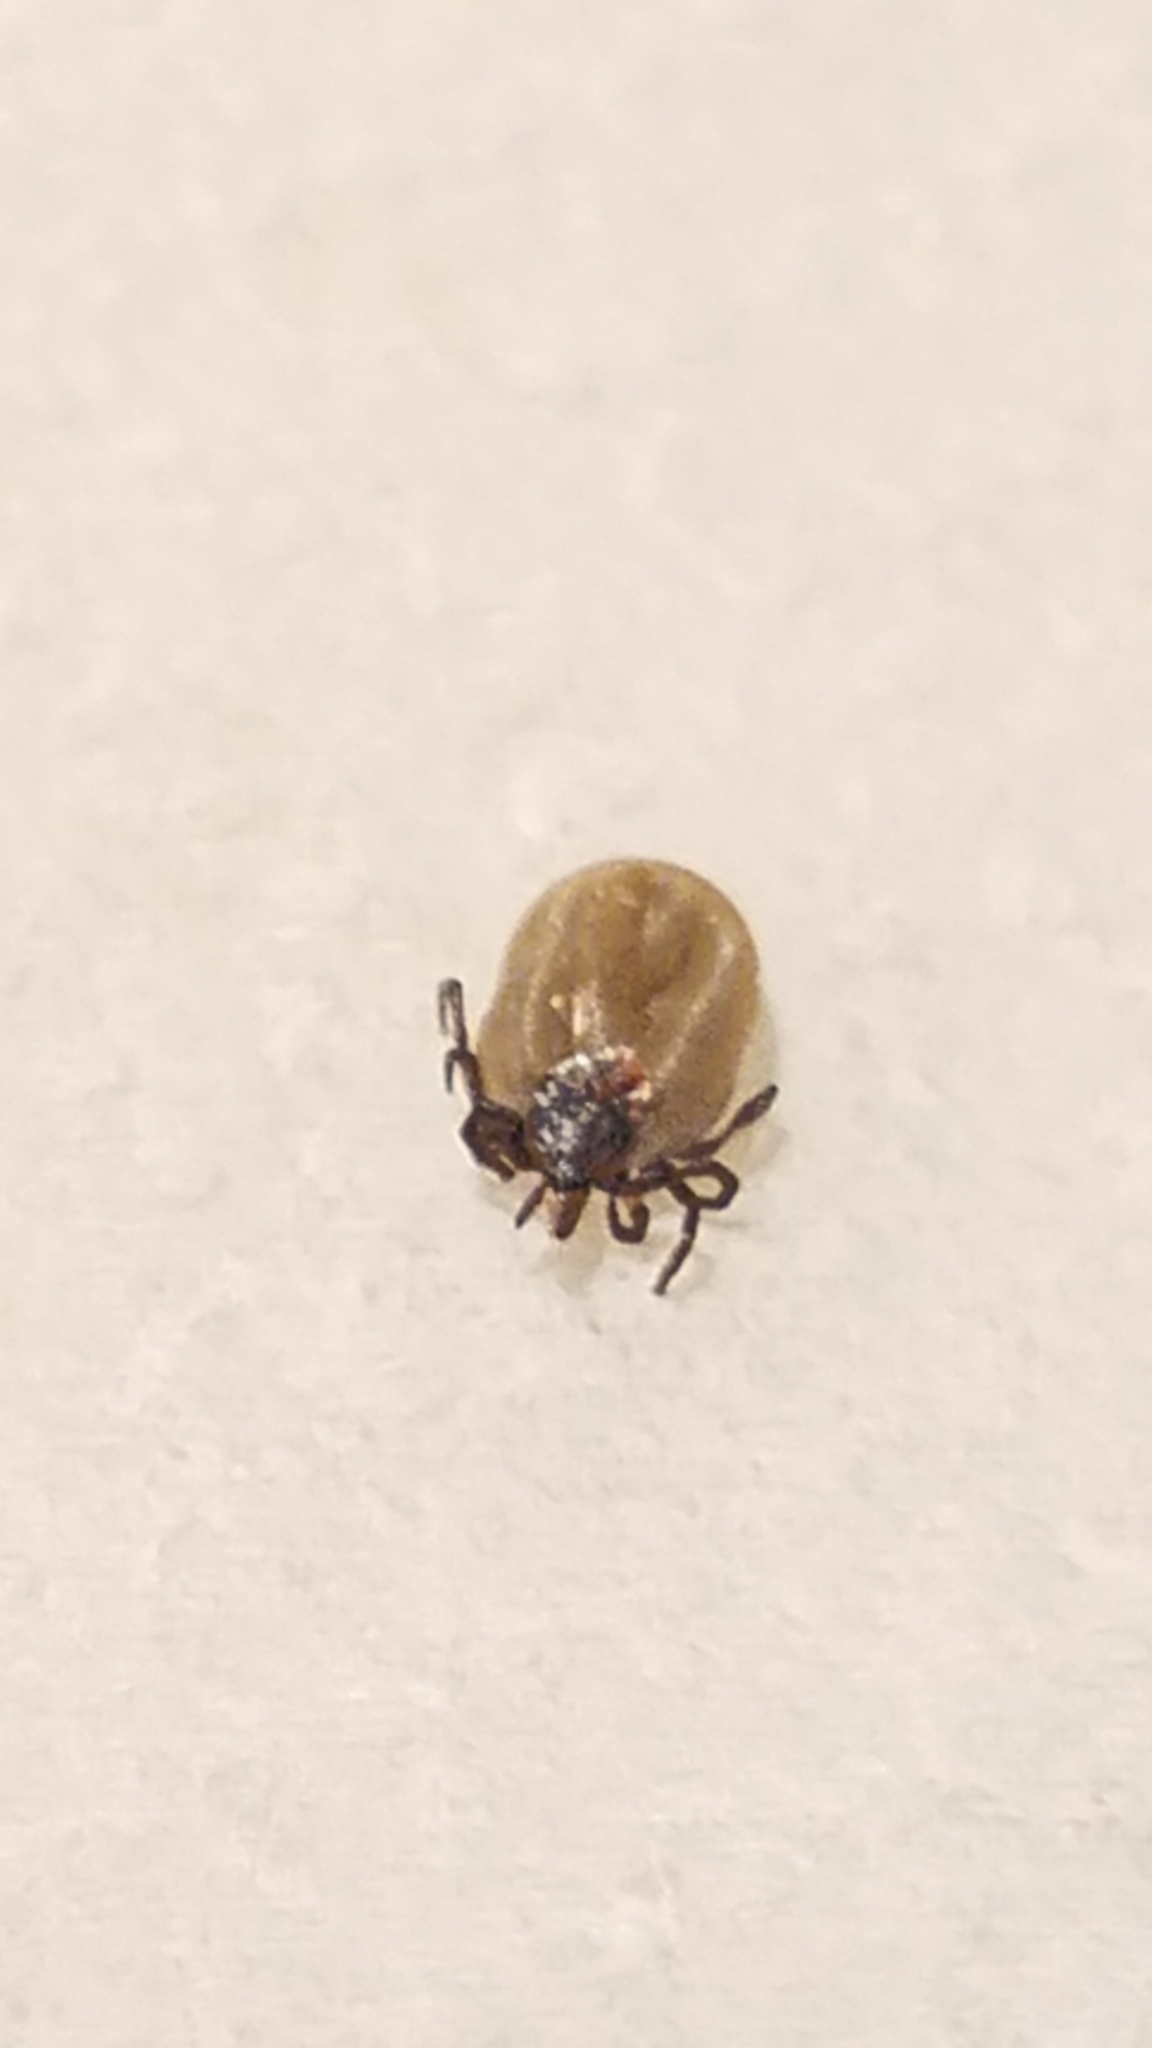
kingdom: Animalia
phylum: Arthropoda
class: Arachnida
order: Ixodida
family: Ixodidae
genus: Ixodes
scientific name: Ixodes scapularis
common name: Black legged tick
